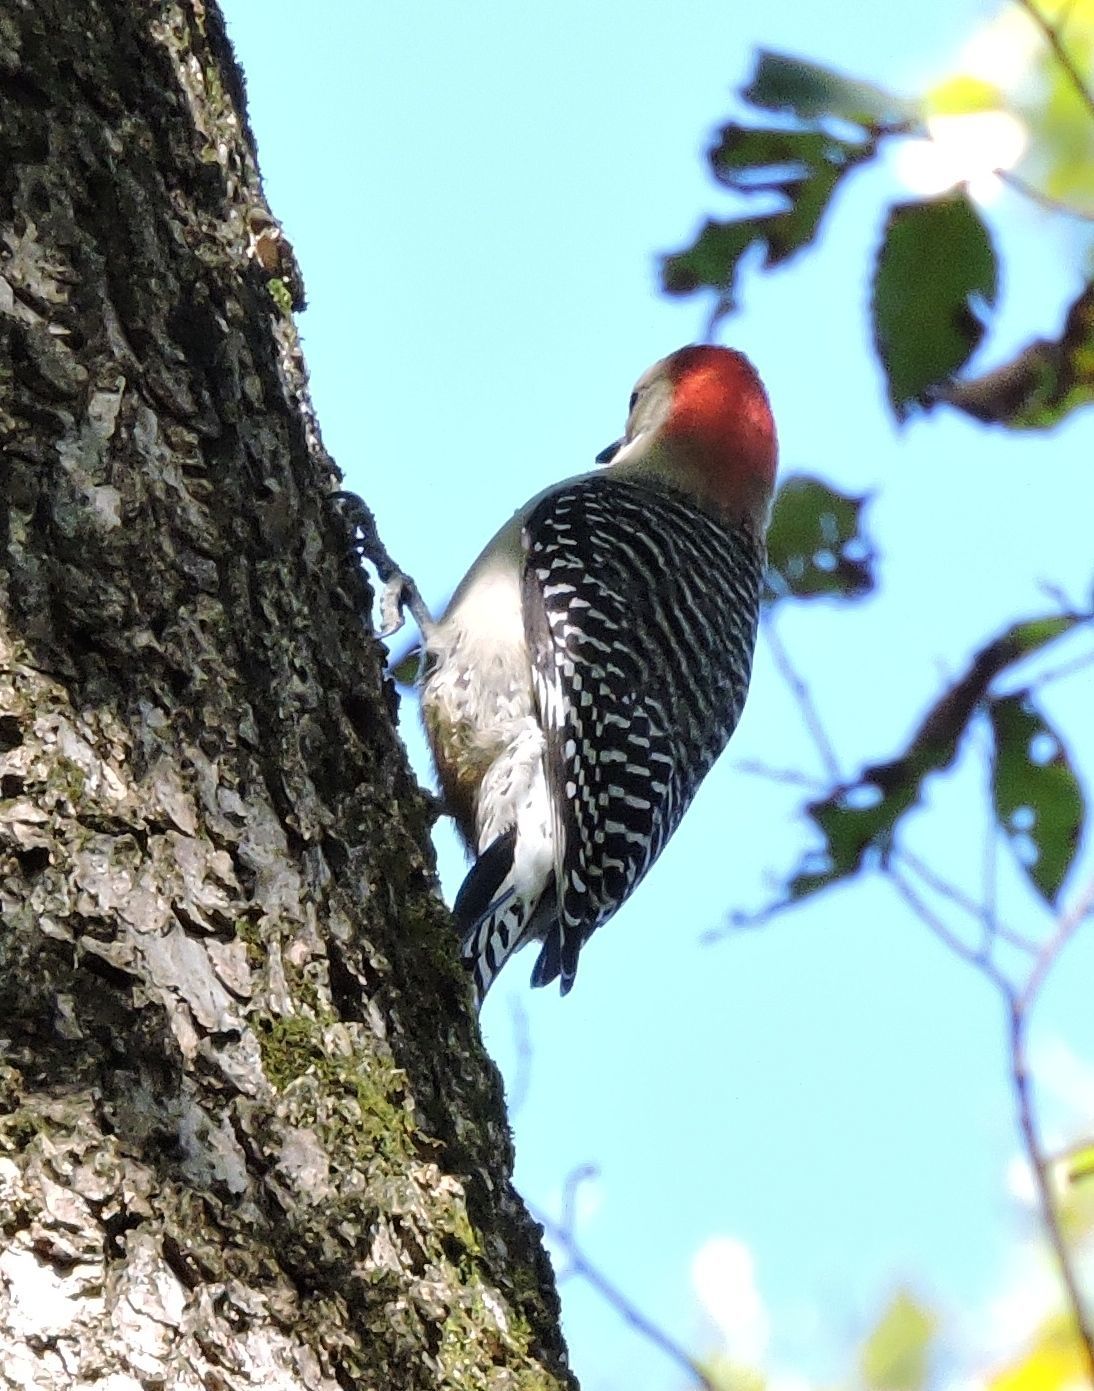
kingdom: Animalia
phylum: Chordata
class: Aves
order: Piciformes
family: Picidae
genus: Melanerpes
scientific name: Melanerpes carolinus
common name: Red-bellied woodpecker
